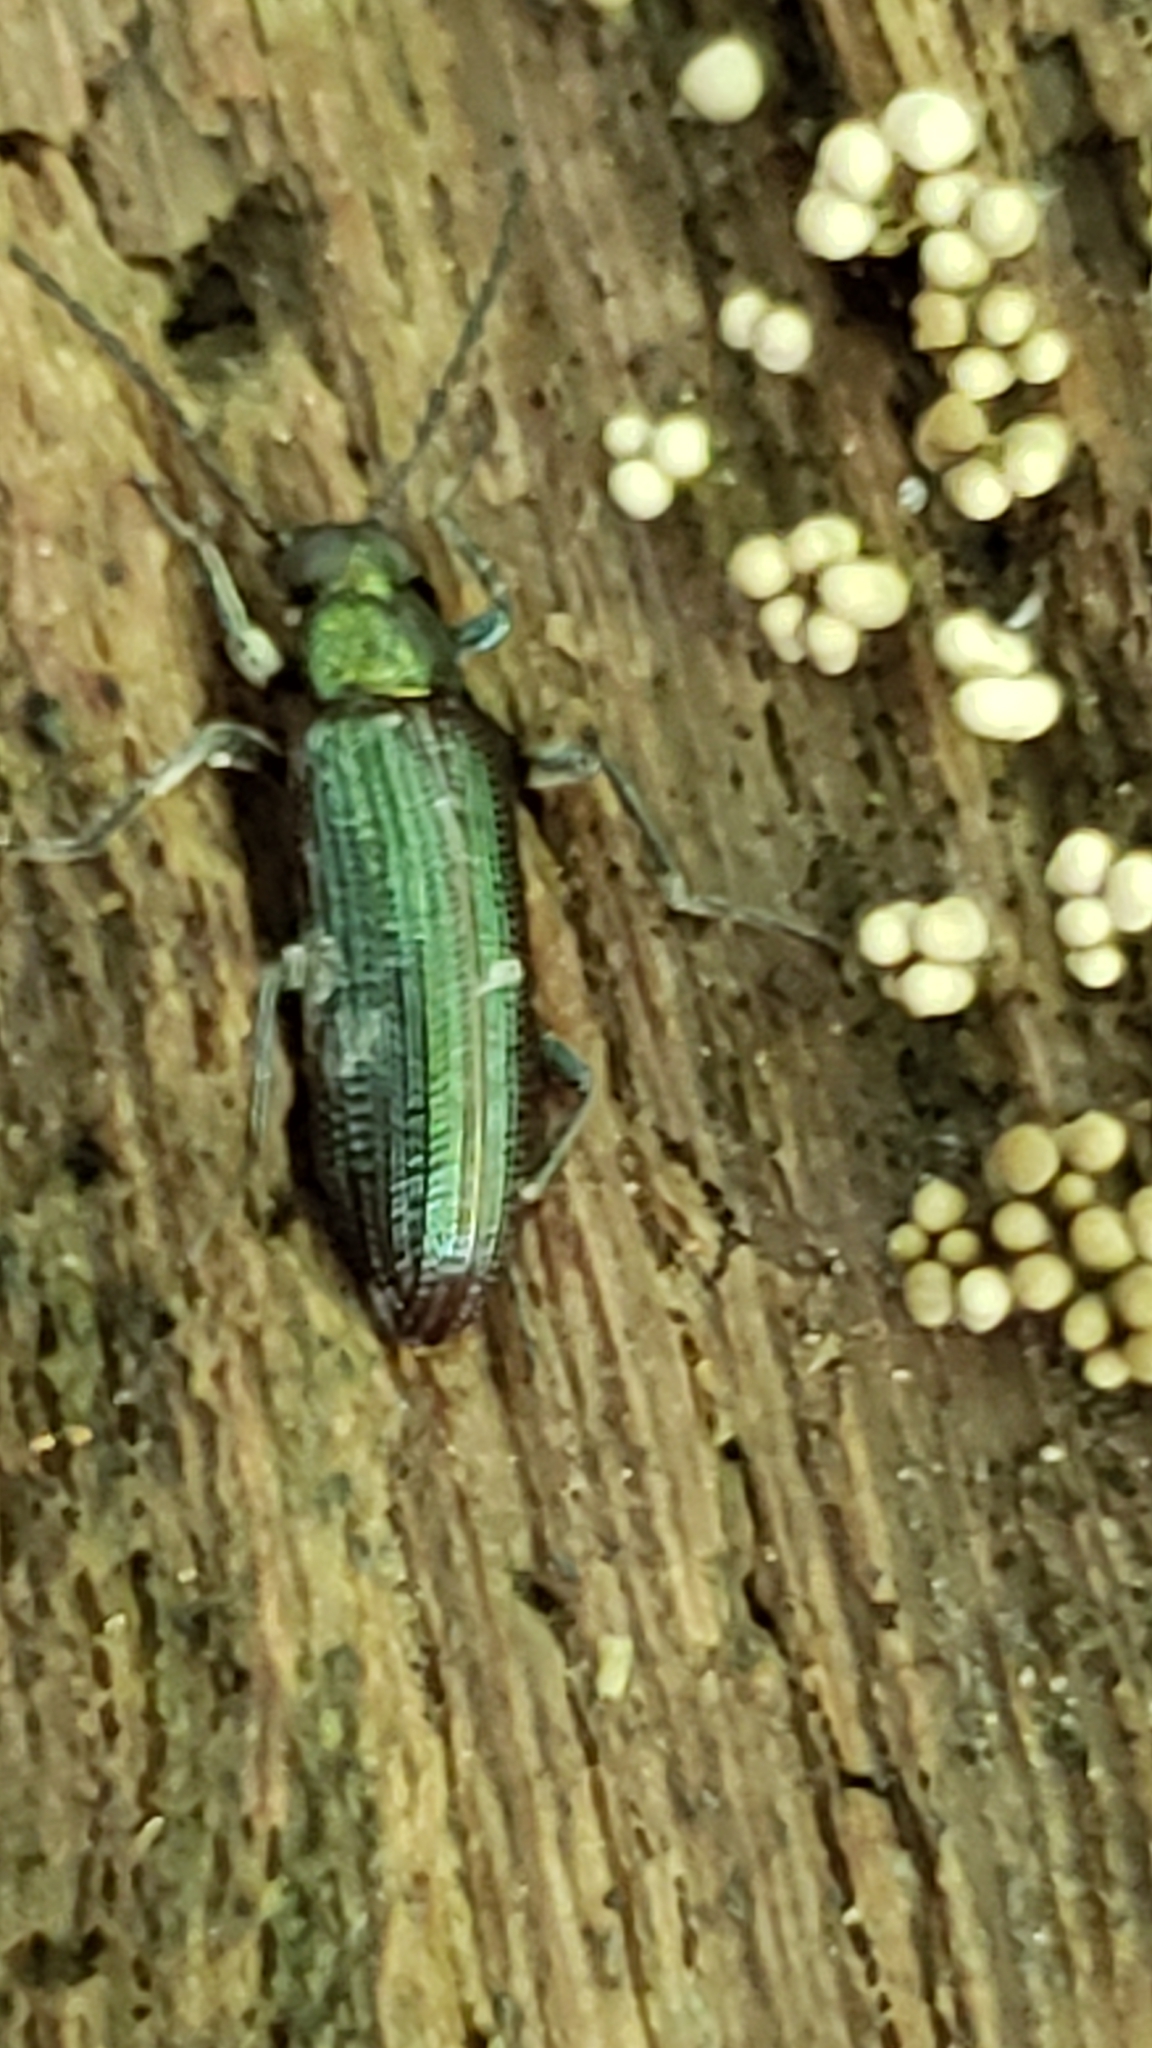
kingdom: Animalia
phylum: Arthropoda
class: Insecta
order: Coleoptera
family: Tenebrionidae
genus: Strongylium
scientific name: Strongylium
